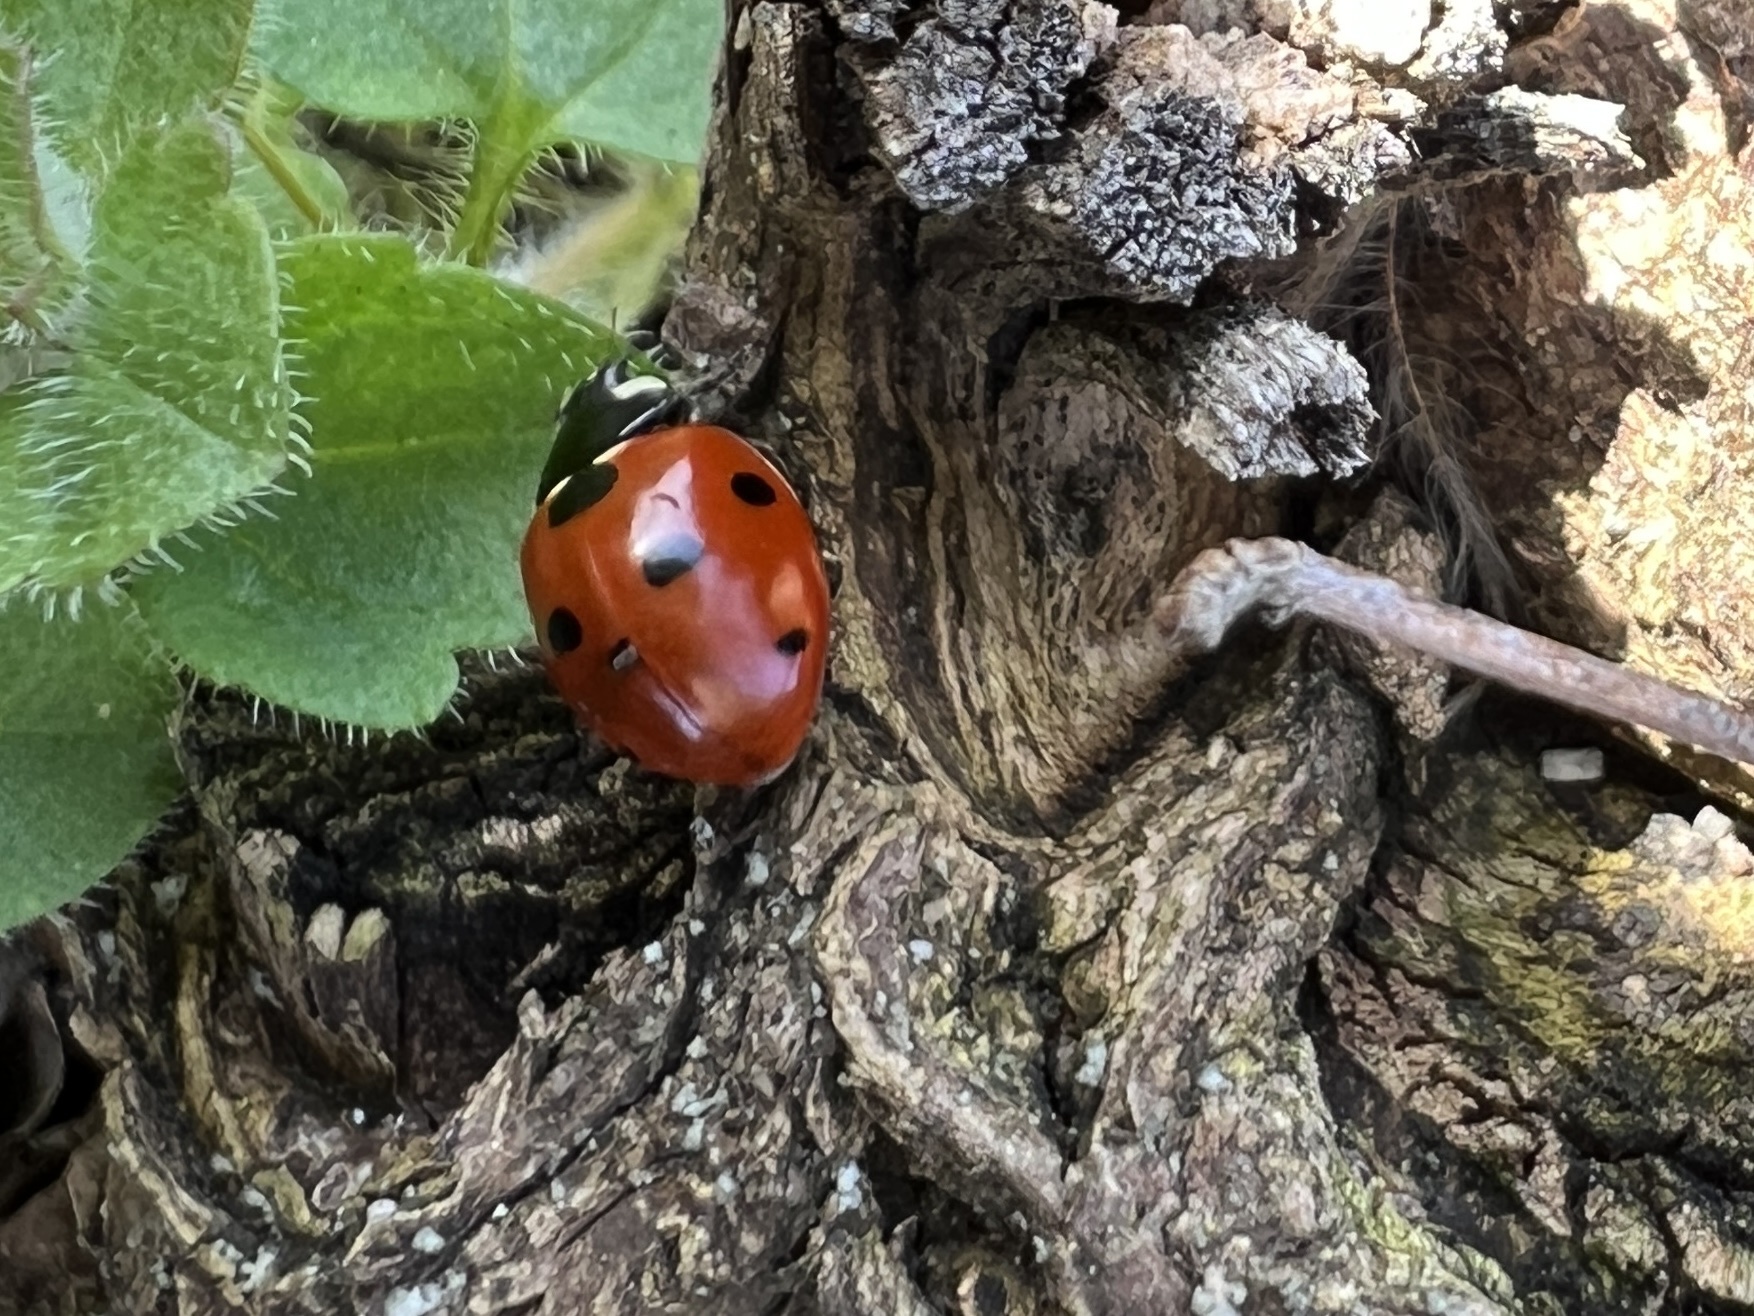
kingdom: Animalia
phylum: Arthropoda
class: Insecta
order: Coleoptera
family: Coccinellidae
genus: Coccinella
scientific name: Coccinella septempunctata
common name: Sevenspotted lady beetle
